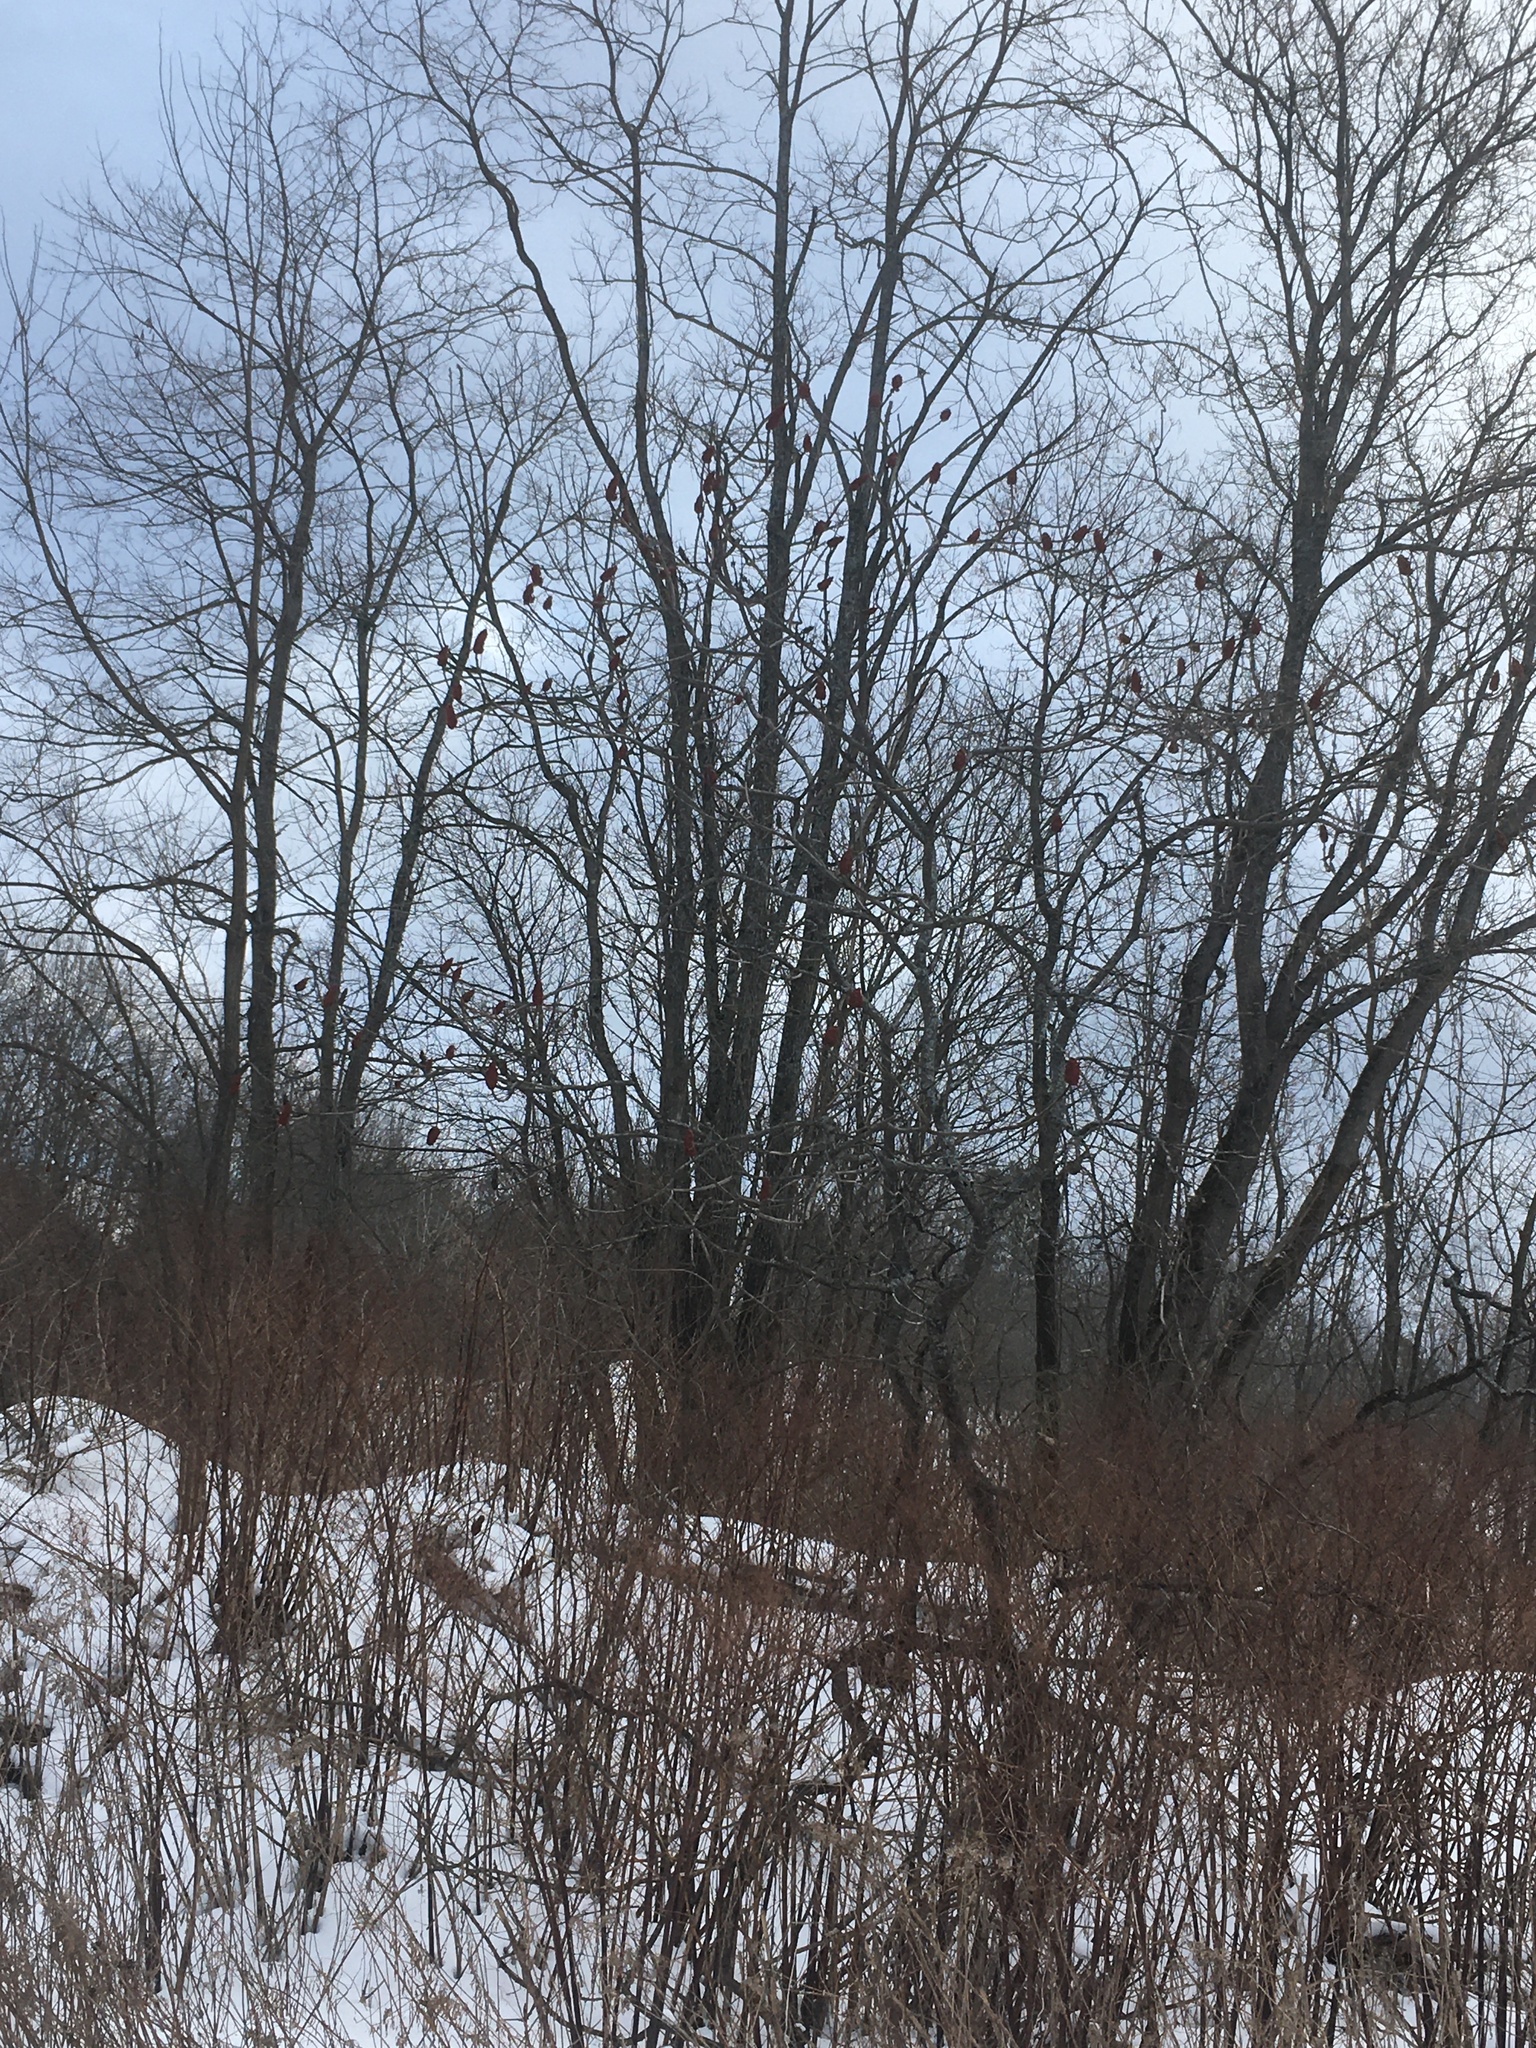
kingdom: Plantae
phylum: Tracheophyta
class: Magnoliopsida
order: Sapindales
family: Anacardiaceae
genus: Rhus
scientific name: Rhus typhina
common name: Staghorn sumac
